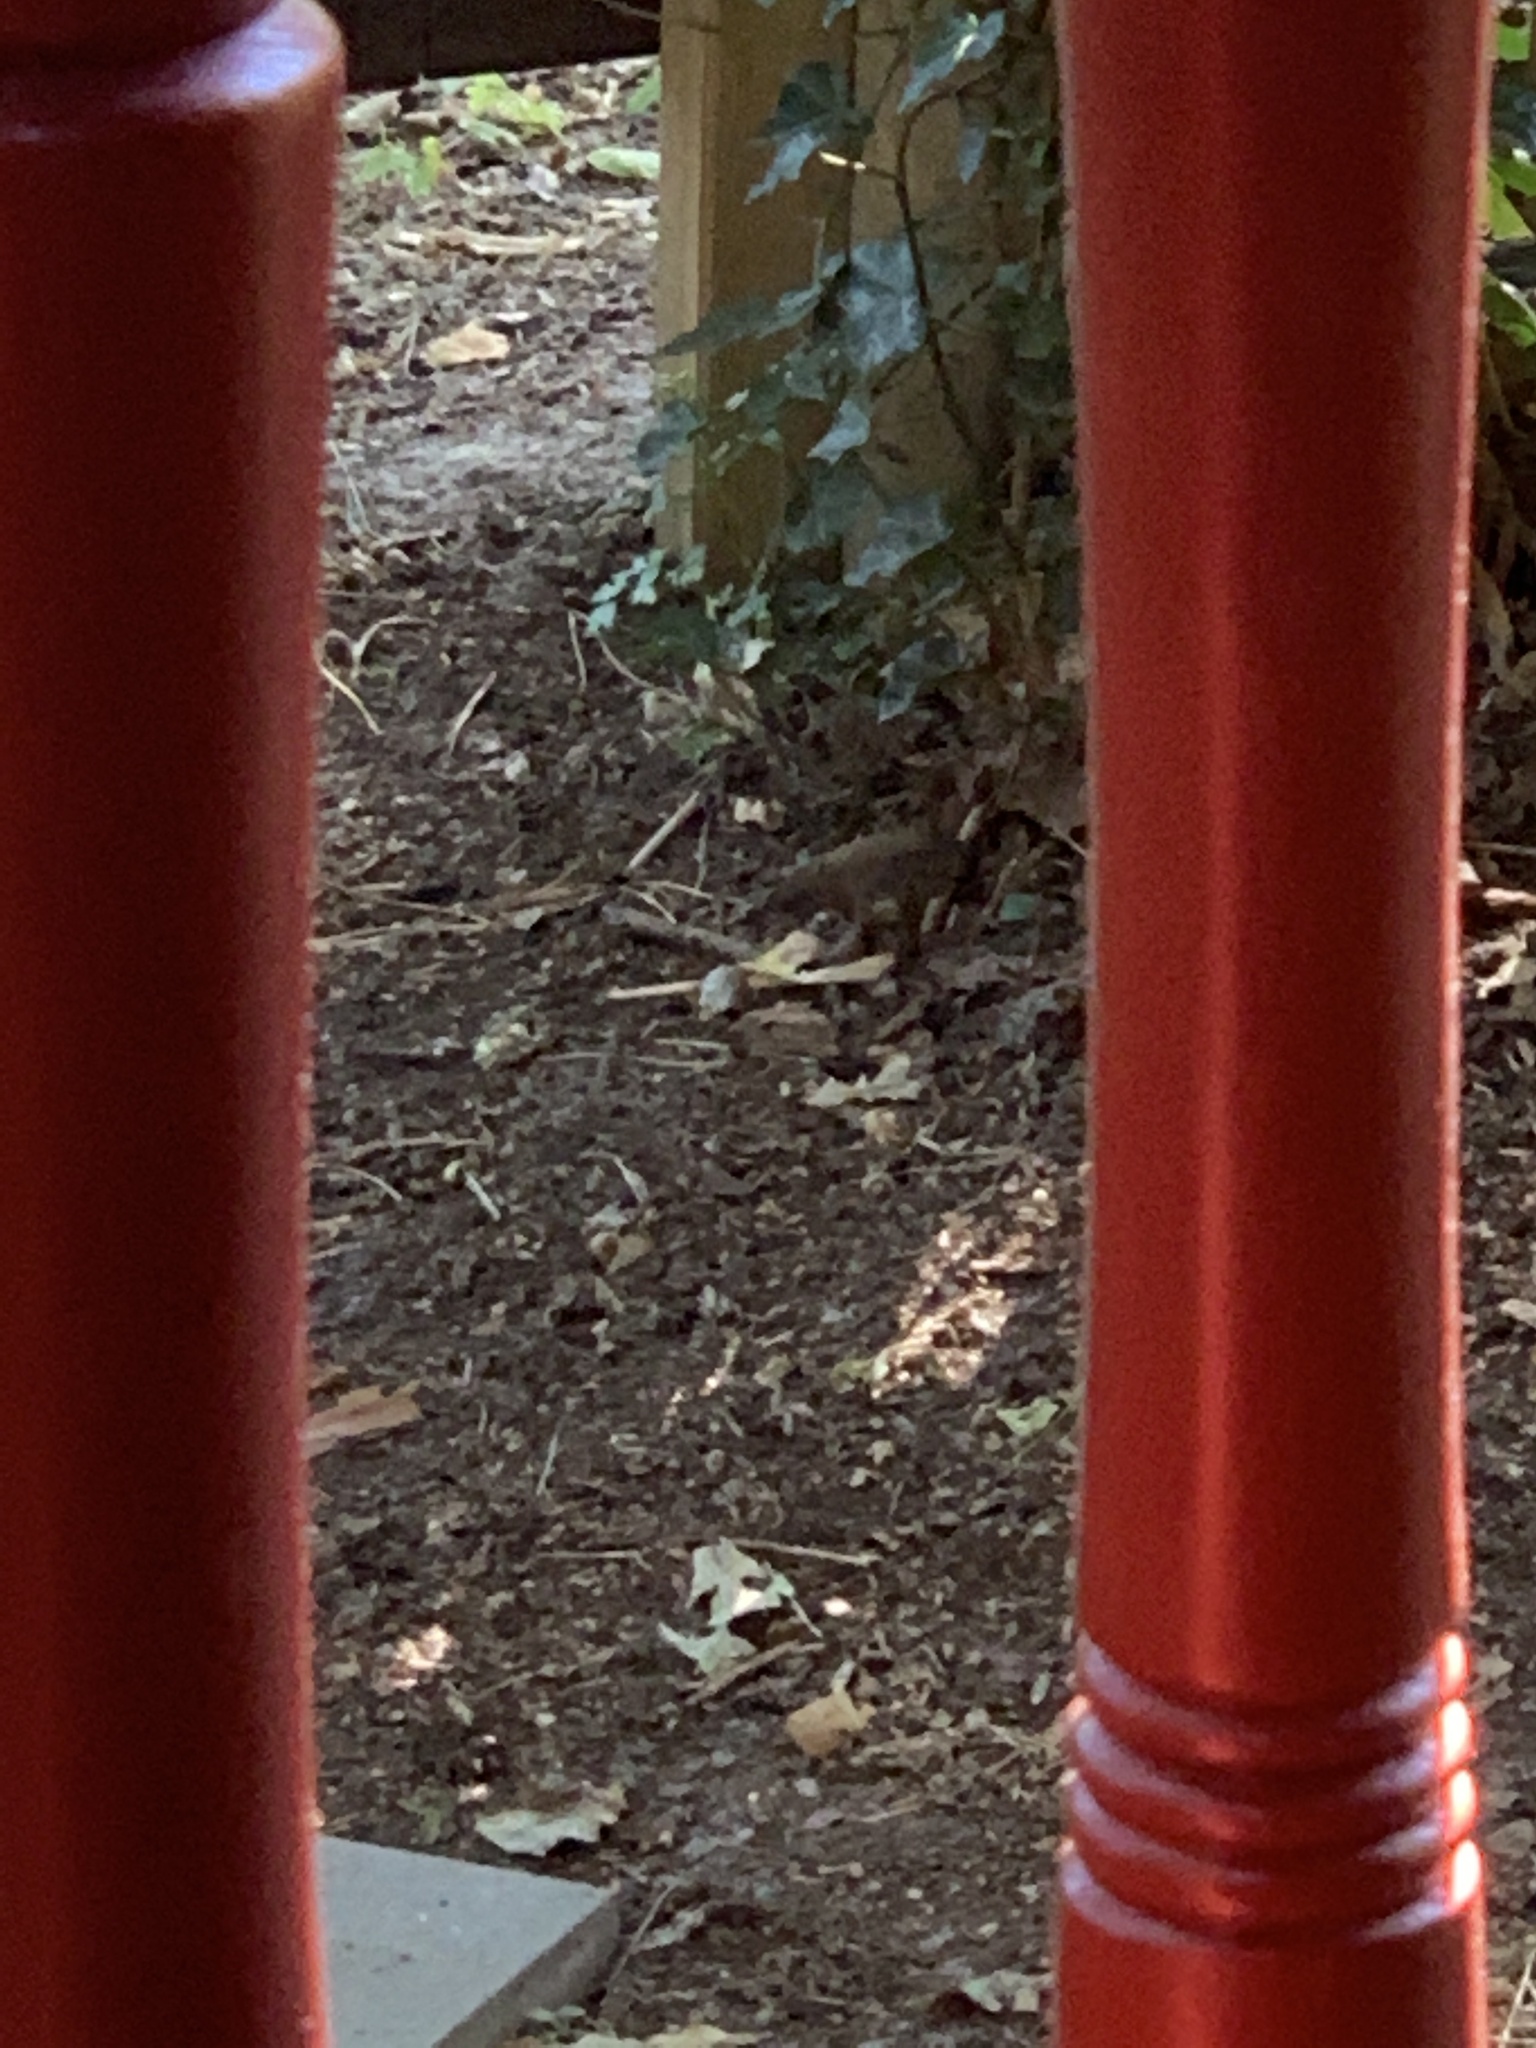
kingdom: Animalia
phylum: Chordata
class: Aves
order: Passeriformes
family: Troglodytidae
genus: Troglodytes
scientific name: Troglodytes troglodytes
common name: Eurasian wren
